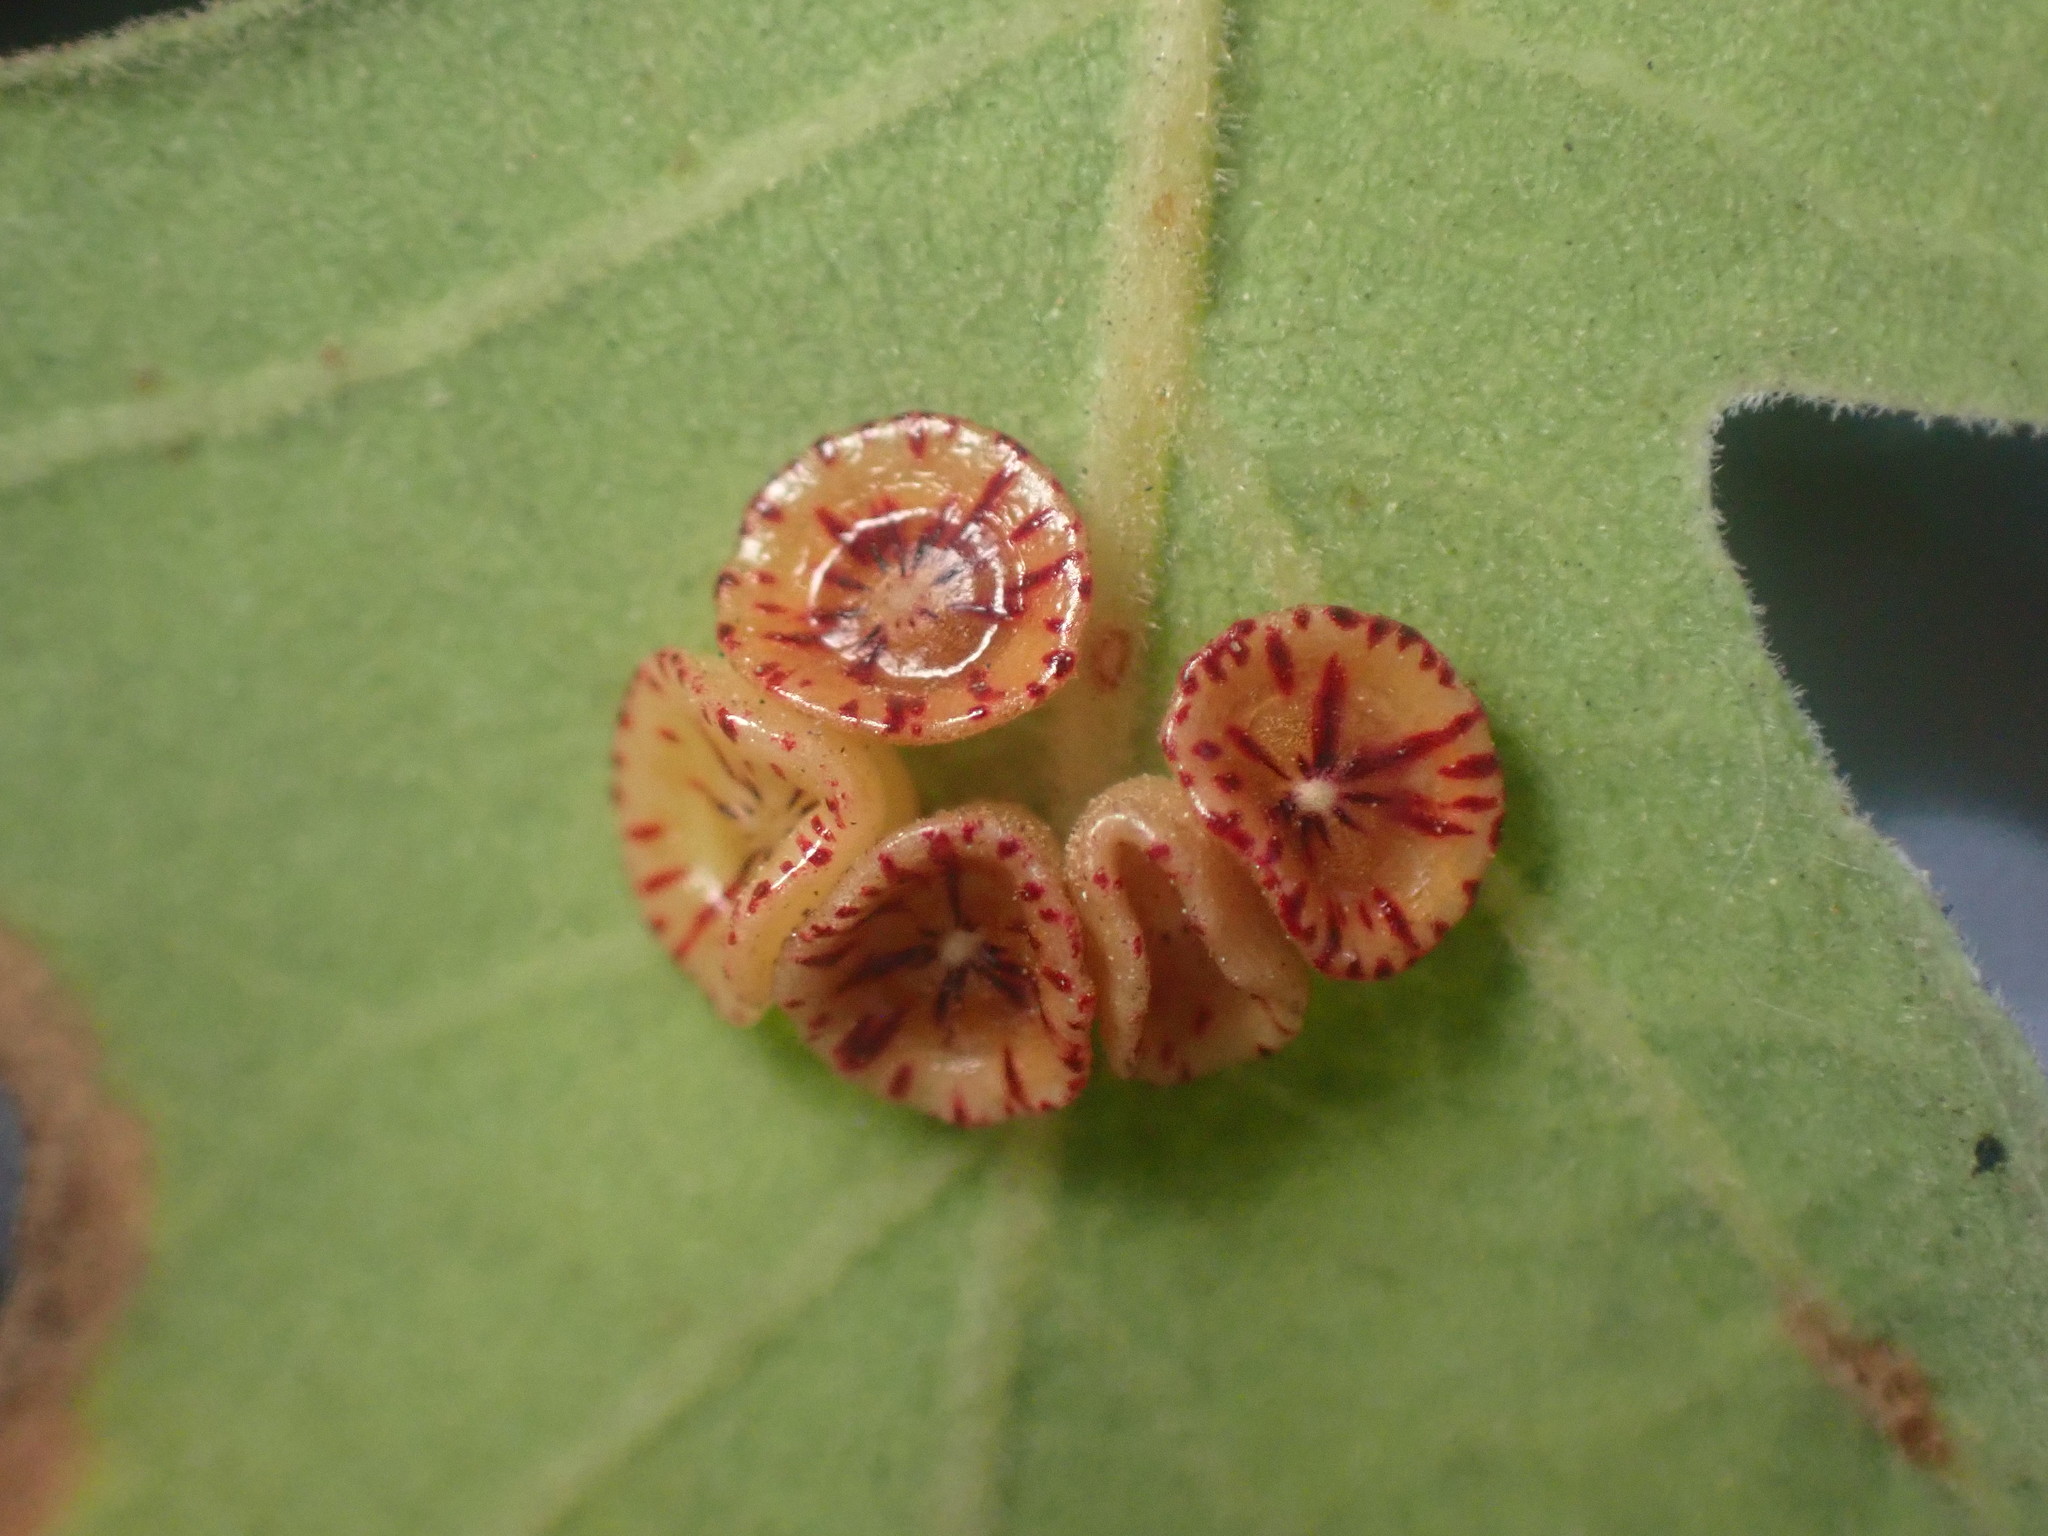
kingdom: Animalia
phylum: Arthropoda
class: Insecta
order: Hymenoptera
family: Cynipidae
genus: Andricus
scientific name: Andricus
